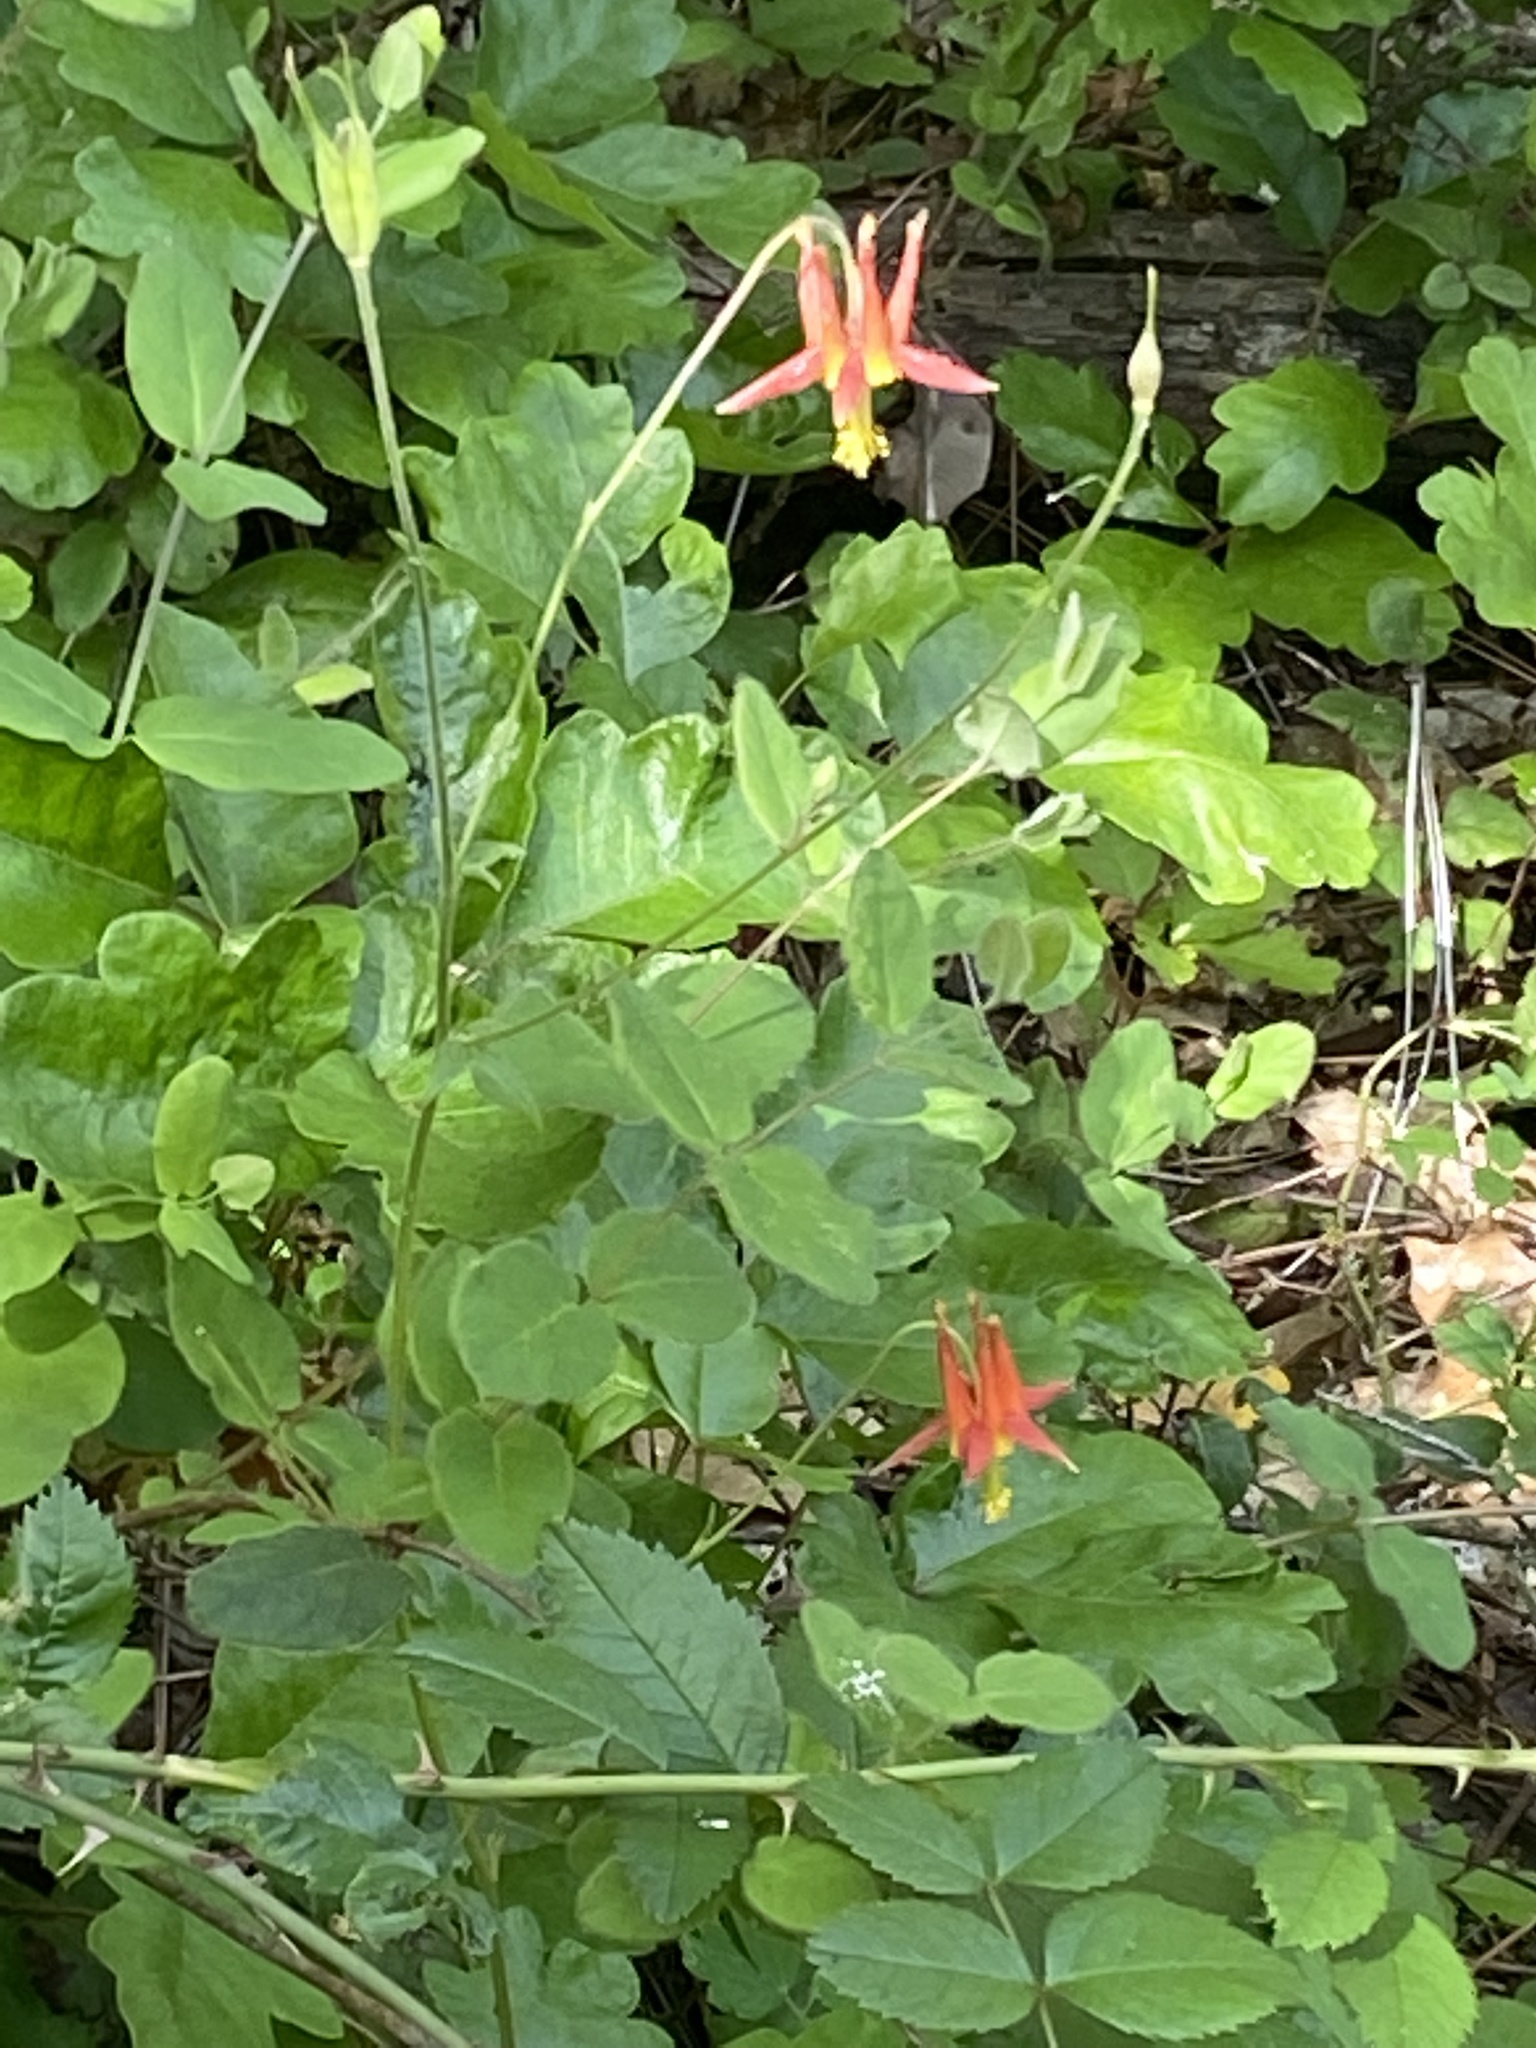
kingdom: Plantae
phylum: Tracheophyta
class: Magnoliopsida
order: Ranunculales
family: Ranunculaceae
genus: Aquilegia
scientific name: Aquilegia formosa
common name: Sitka columbine
